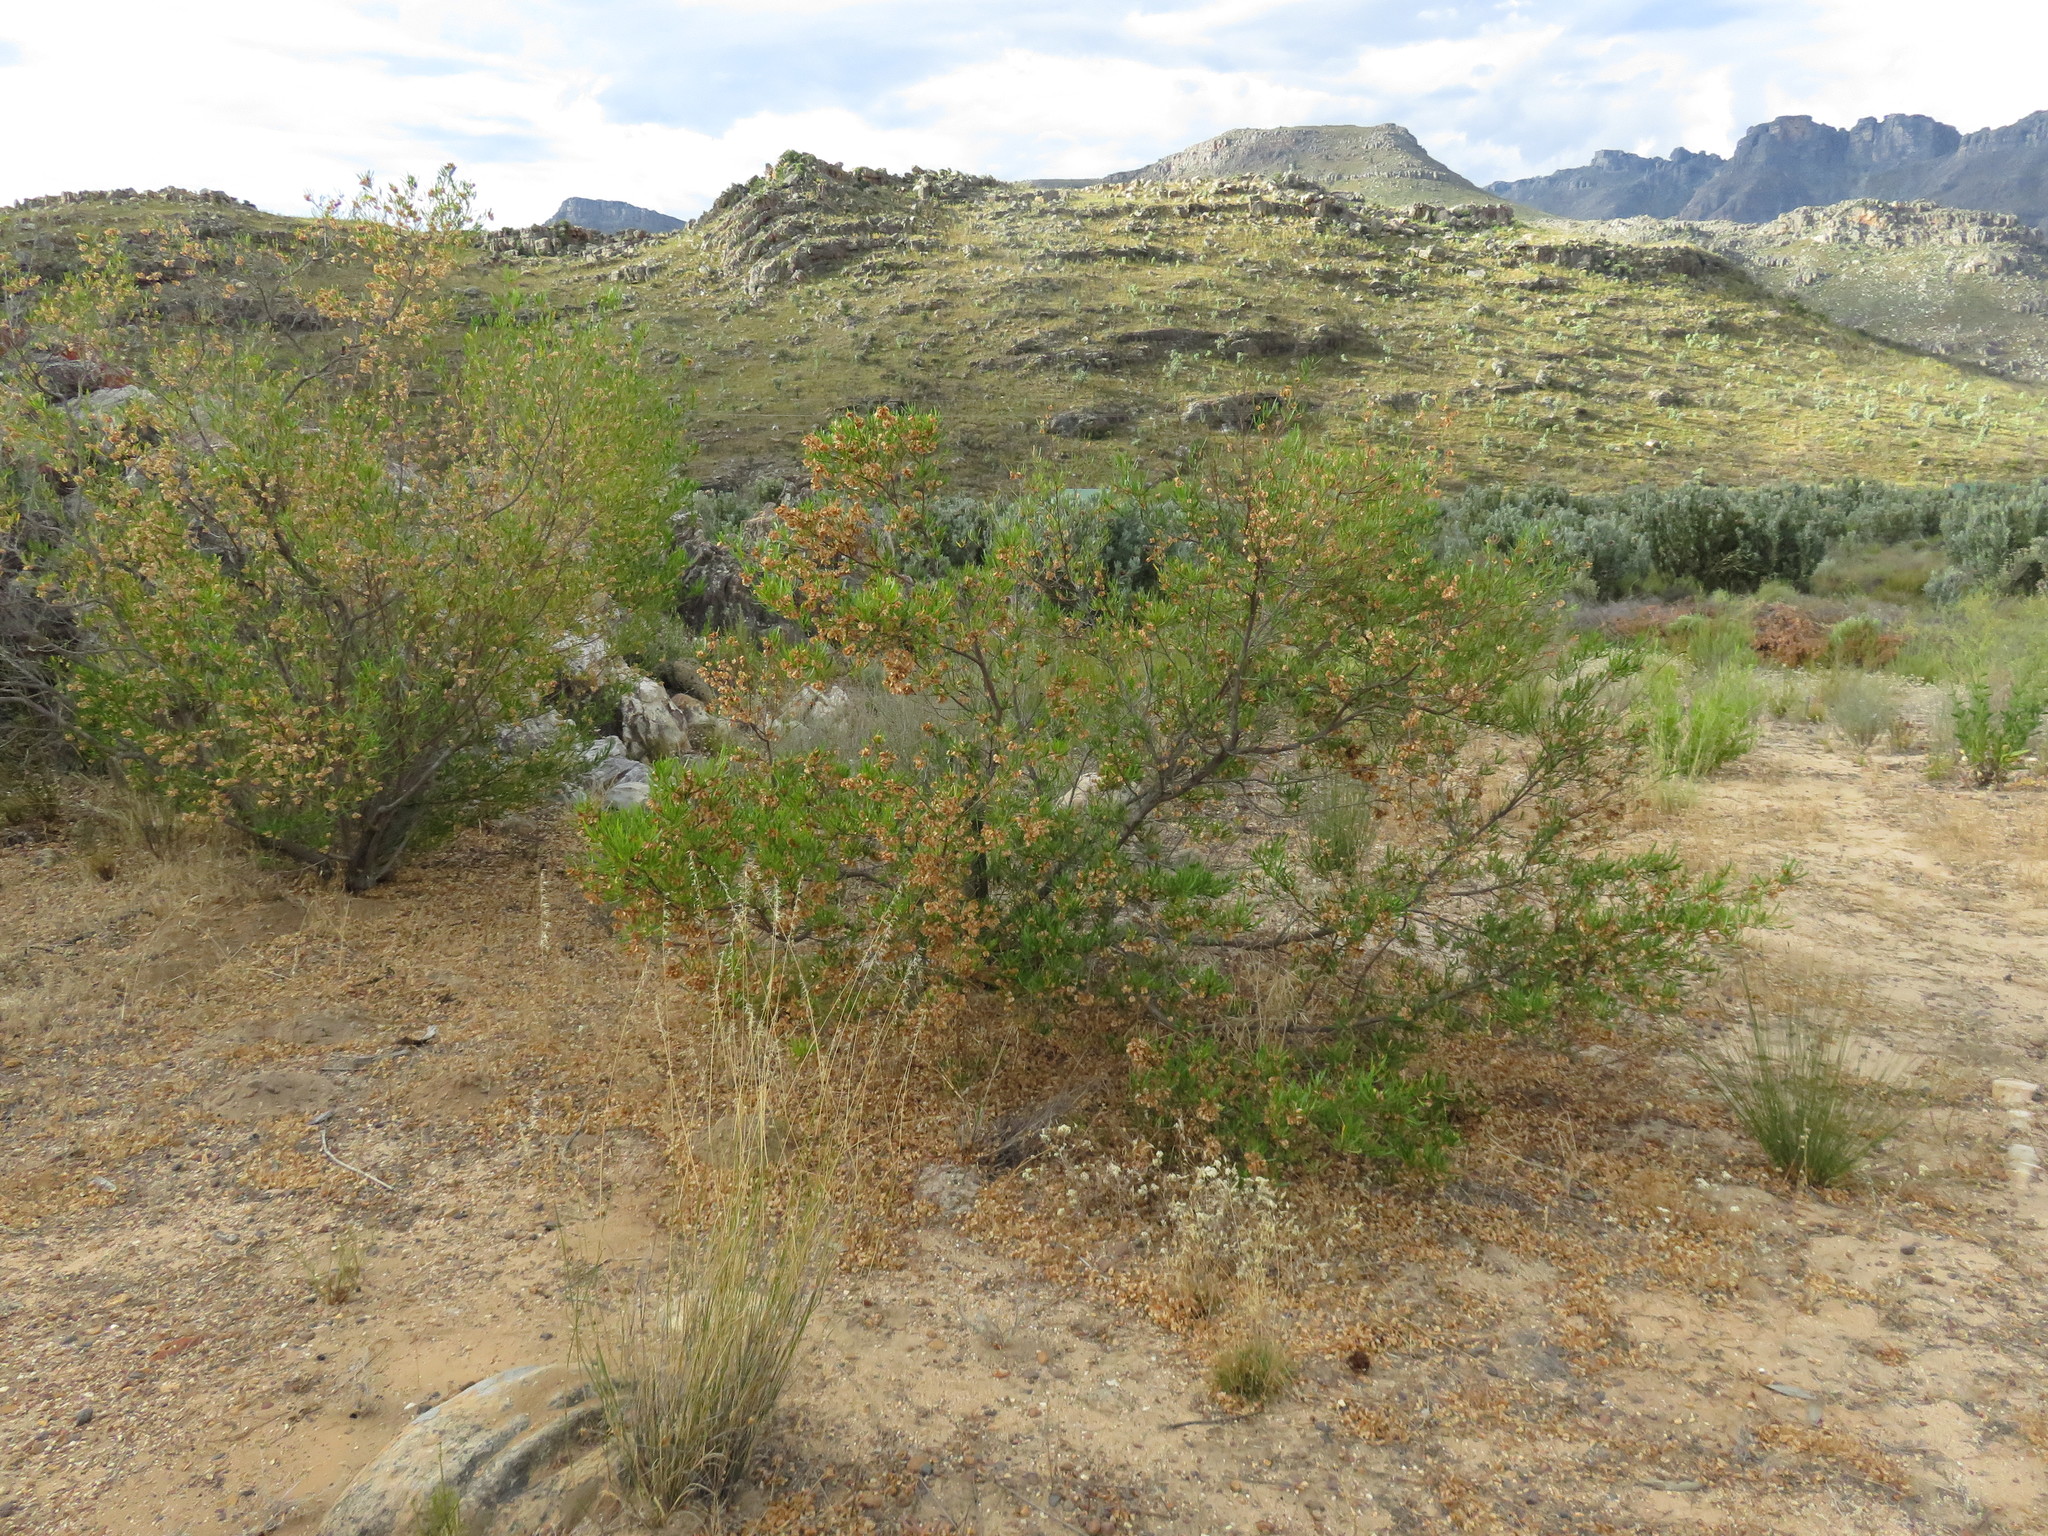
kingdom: Plantae
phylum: Tracheophyta
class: Magnoliopsida
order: Sapindales
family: Sapindaceae
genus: Dodonaea
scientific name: Dodonaea viscosa
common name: Hopbush
